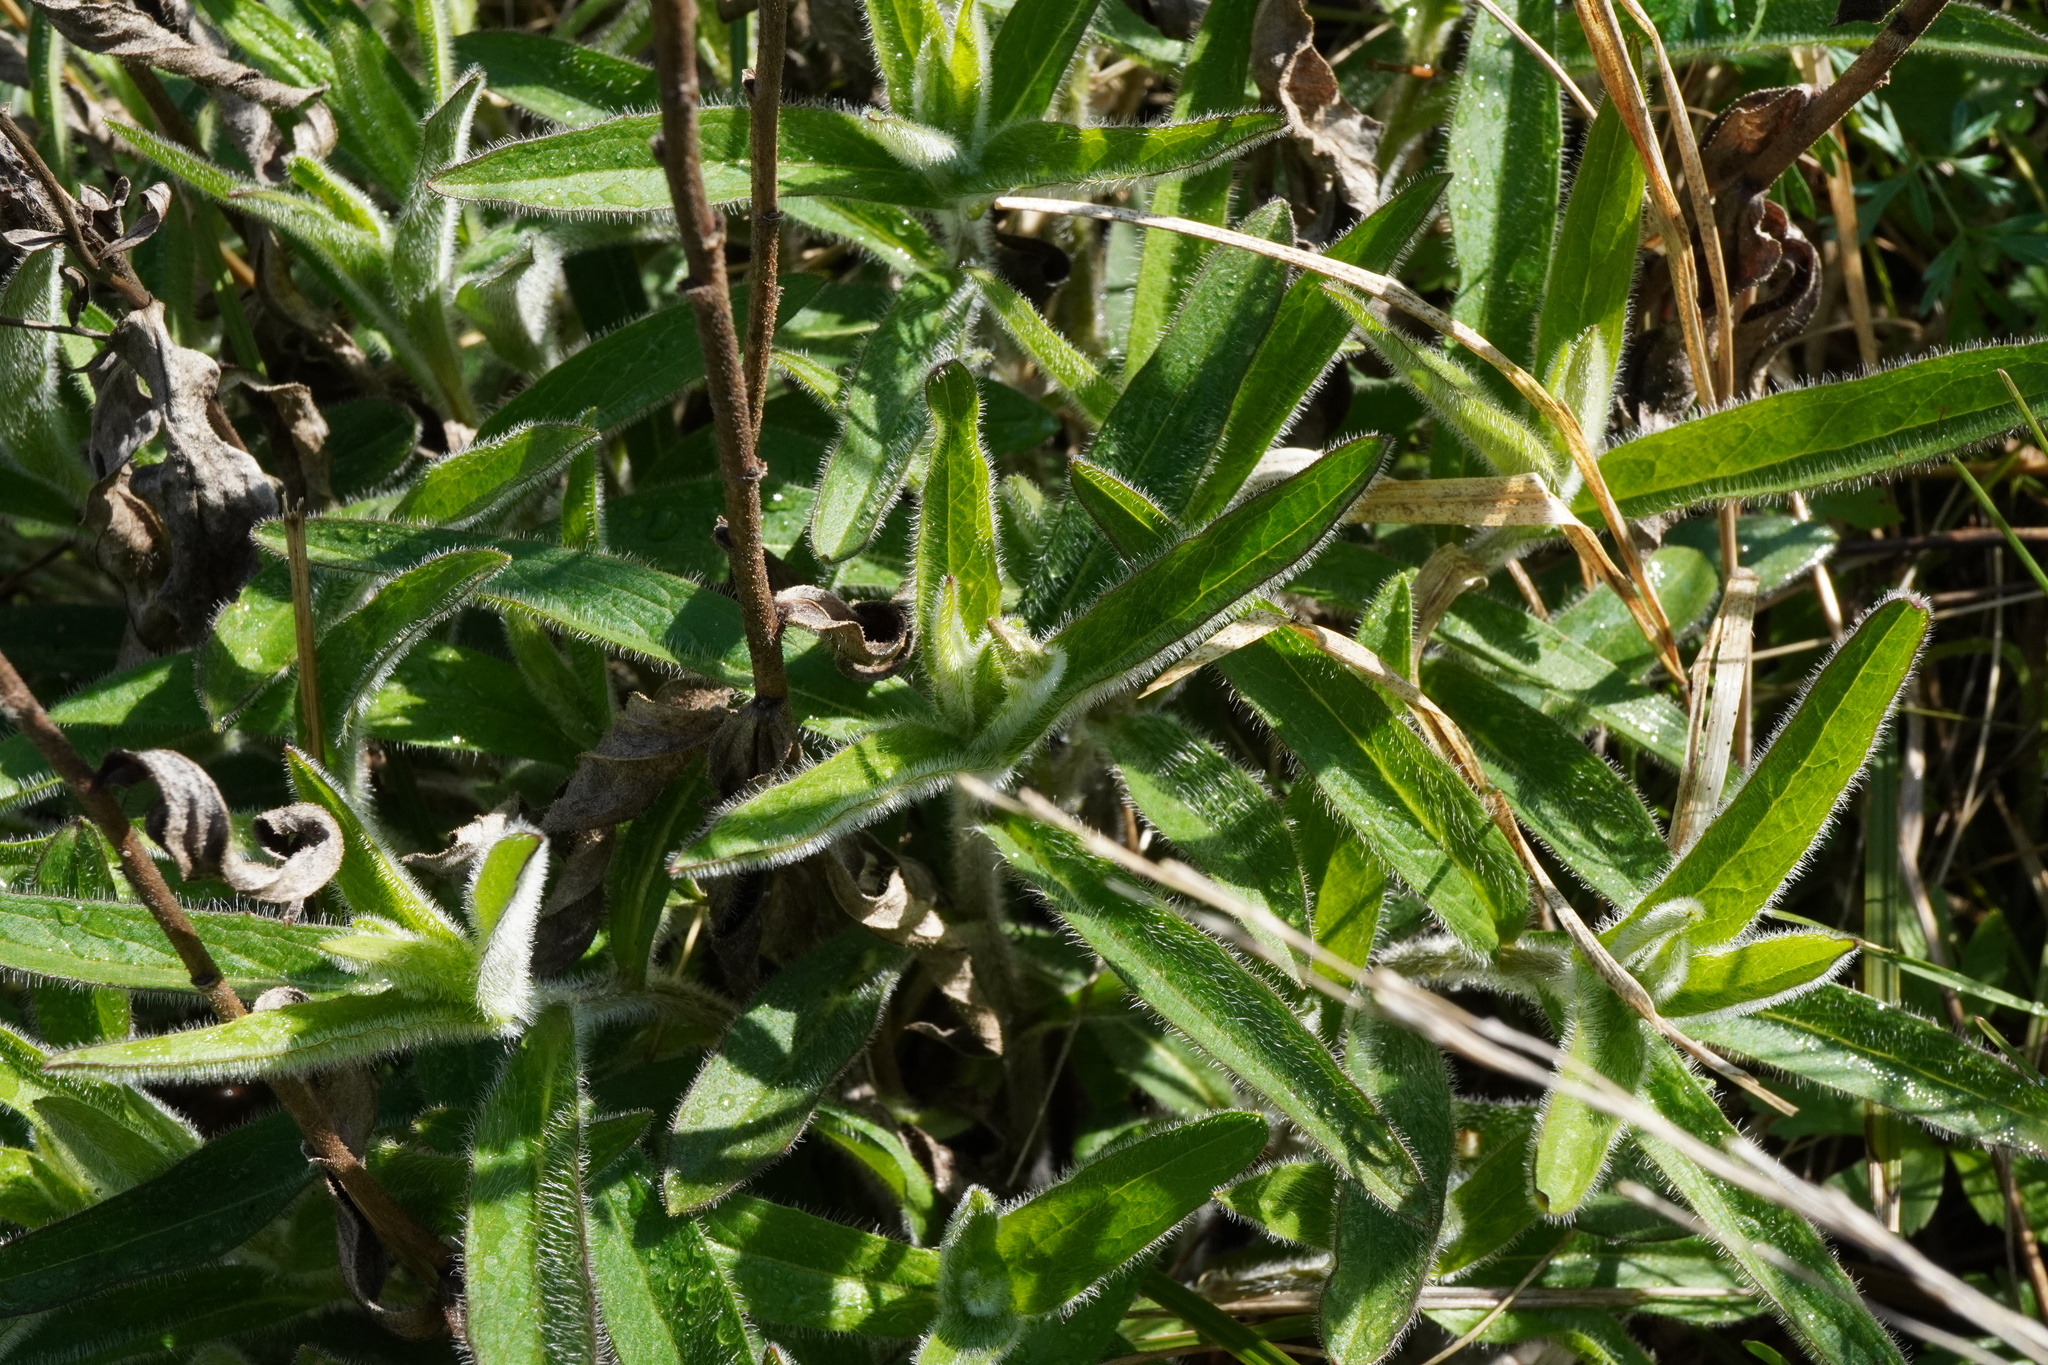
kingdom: Plantae
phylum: Tracheophyta
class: Magnoliopsida
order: Asterales
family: Asteraceae
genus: Pentanema
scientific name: Pentanema hirtum
